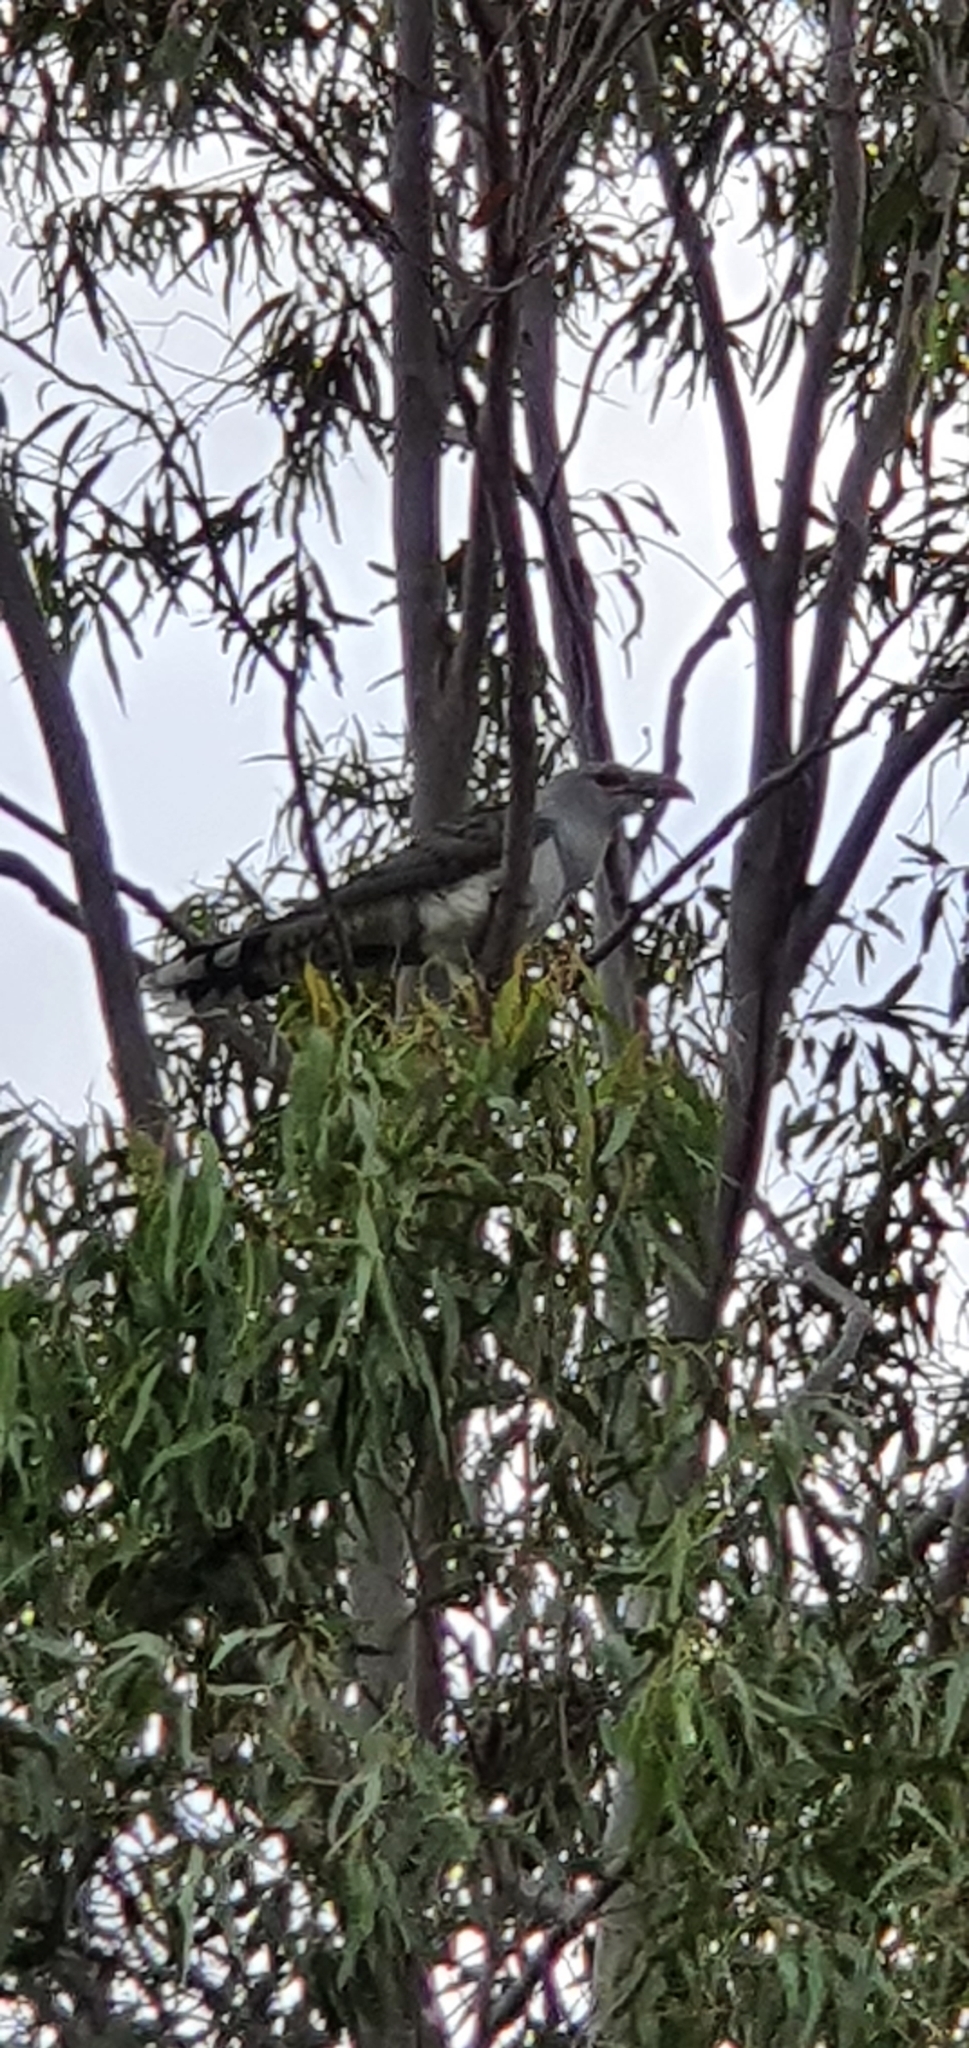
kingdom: Animalia
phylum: Chordata
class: Aves
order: Cuculiformes
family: Cuculidae
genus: Scythrops
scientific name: Scythrops novaehollandiae
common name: Channel-billed cuckoo
